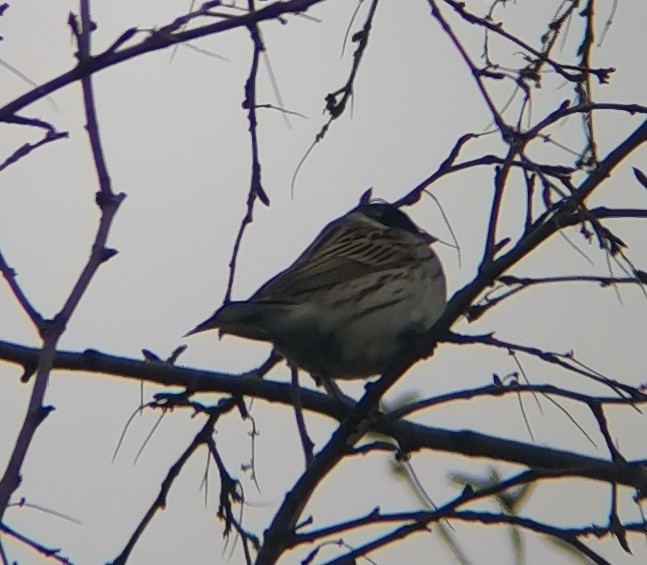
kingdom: Animalia
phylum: Chordata
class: Aves
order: Passeriformes
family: Emberizidae
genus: Emberiza
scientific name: Emberiza schoeniclus
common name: Reed bunting
